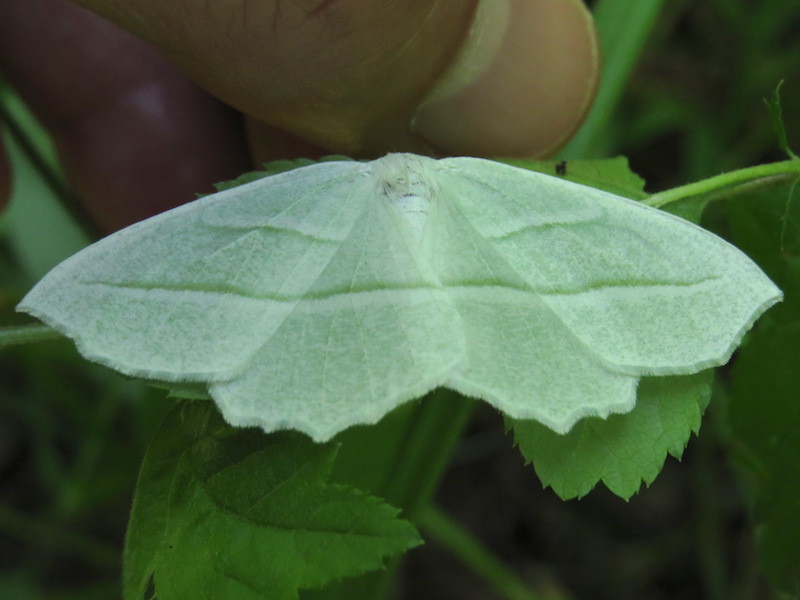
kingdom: Animalia
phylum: Arthropoda
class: Insecta
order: Lepidoptera
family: Geometridae
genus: Campaea
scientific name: Campaea perlata
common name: Fringed looper
